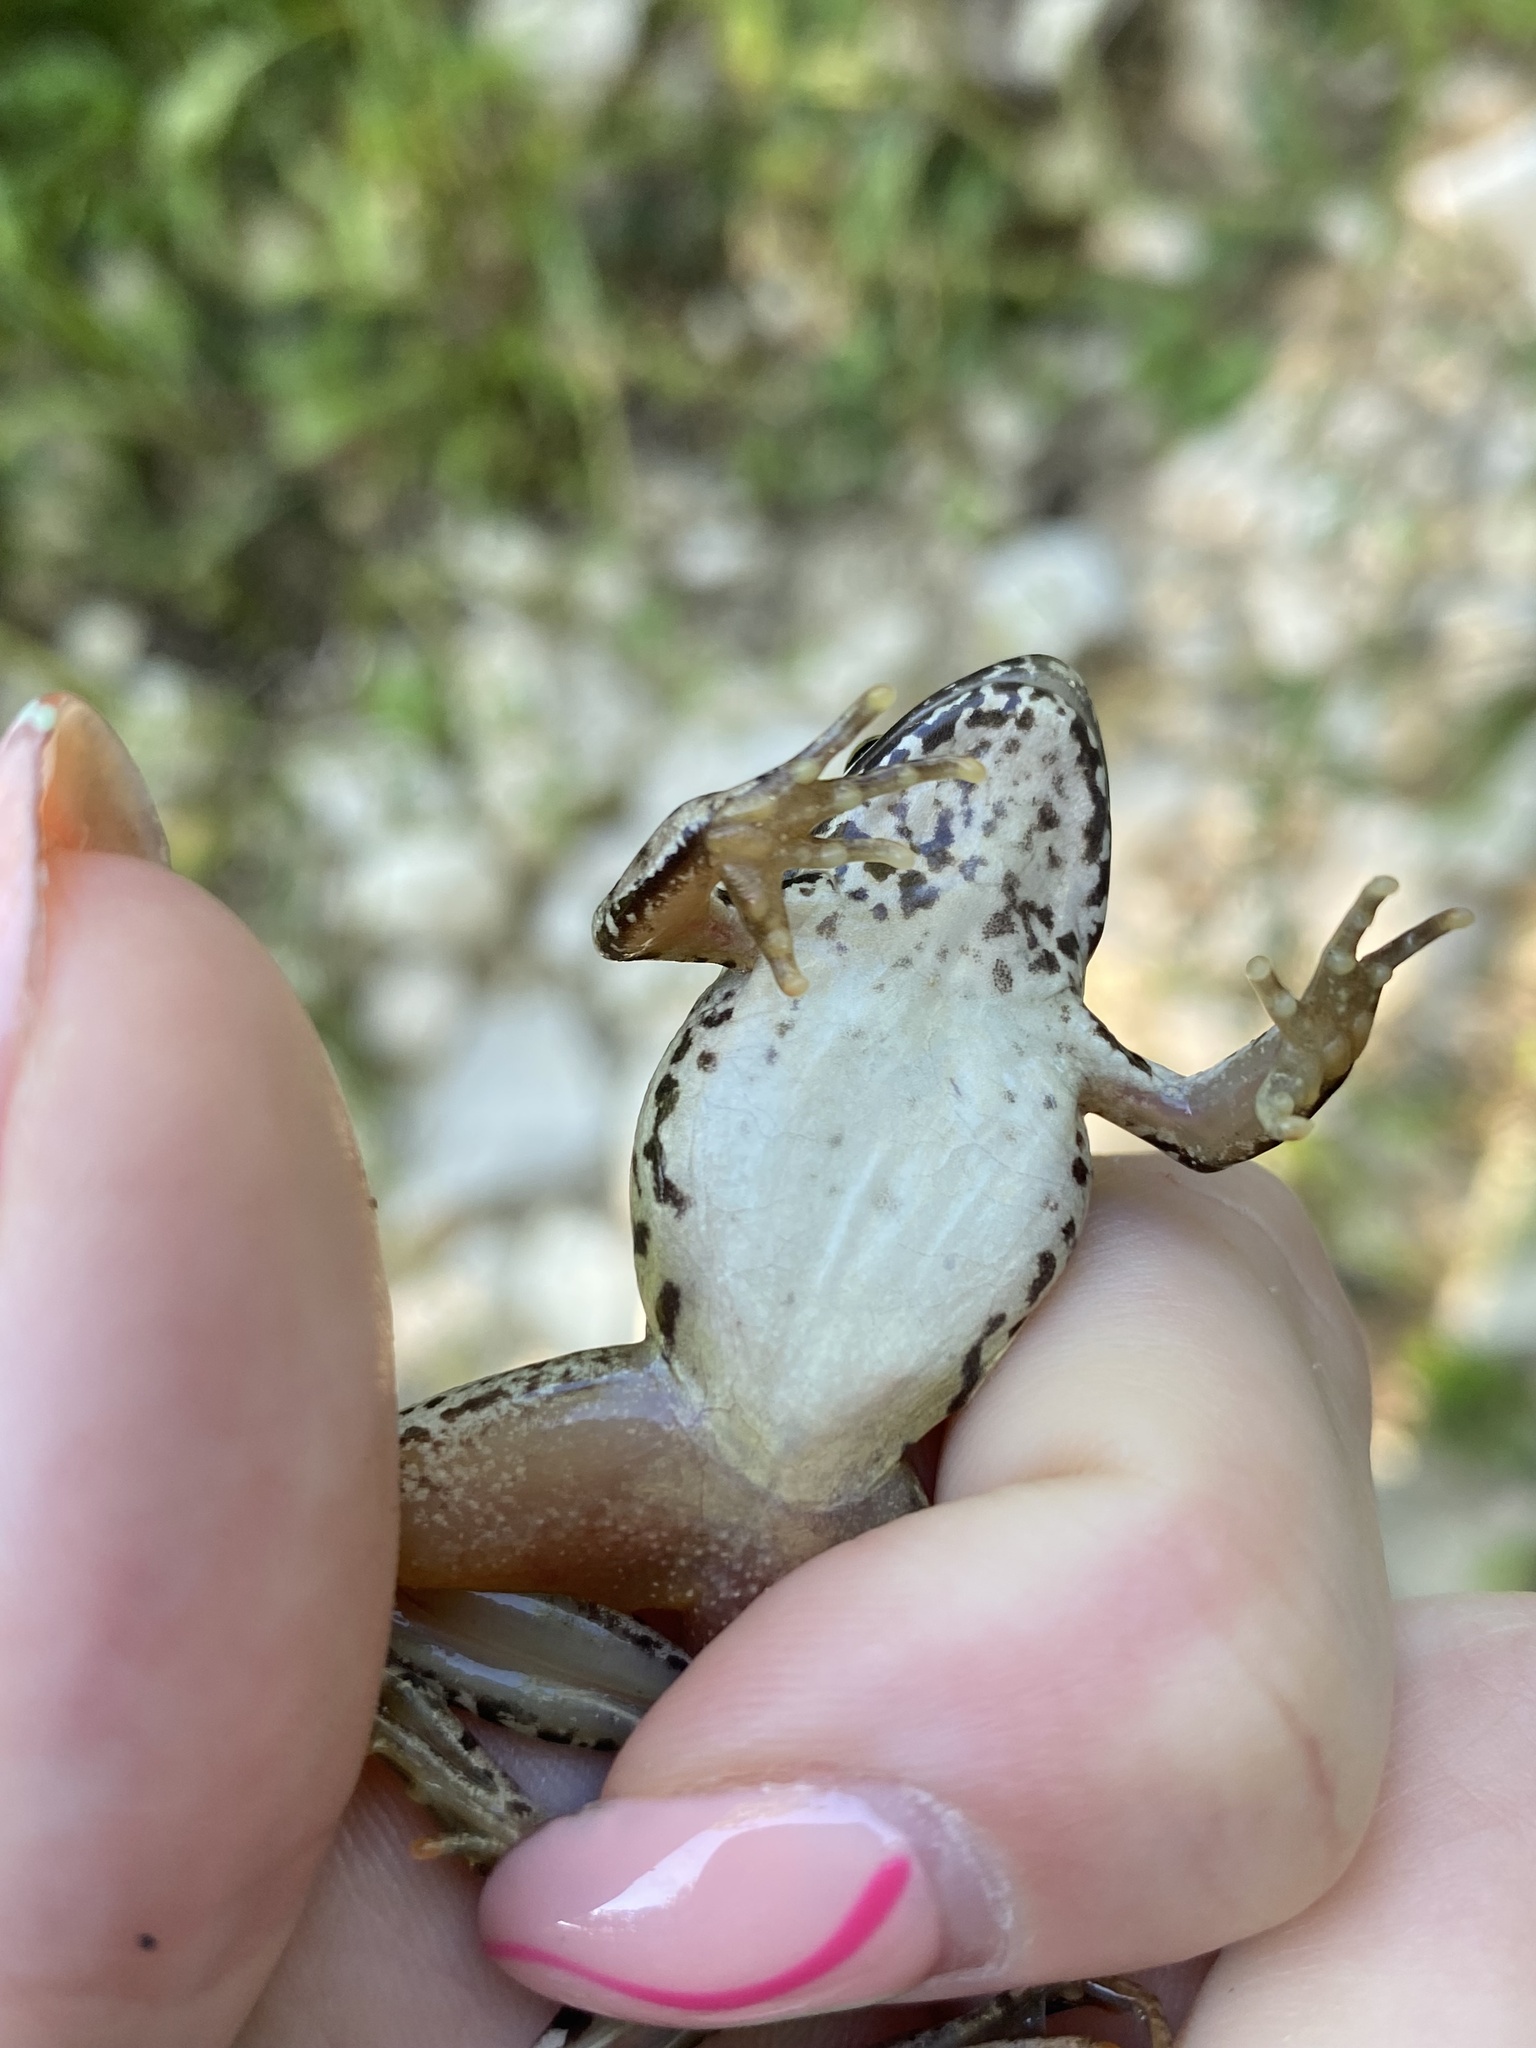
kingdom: Animalia
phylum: Chordata
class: Amphibia
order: Anura
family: Ranidae
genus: Rana
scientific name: Rana macrocnemis
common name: Banded frog
